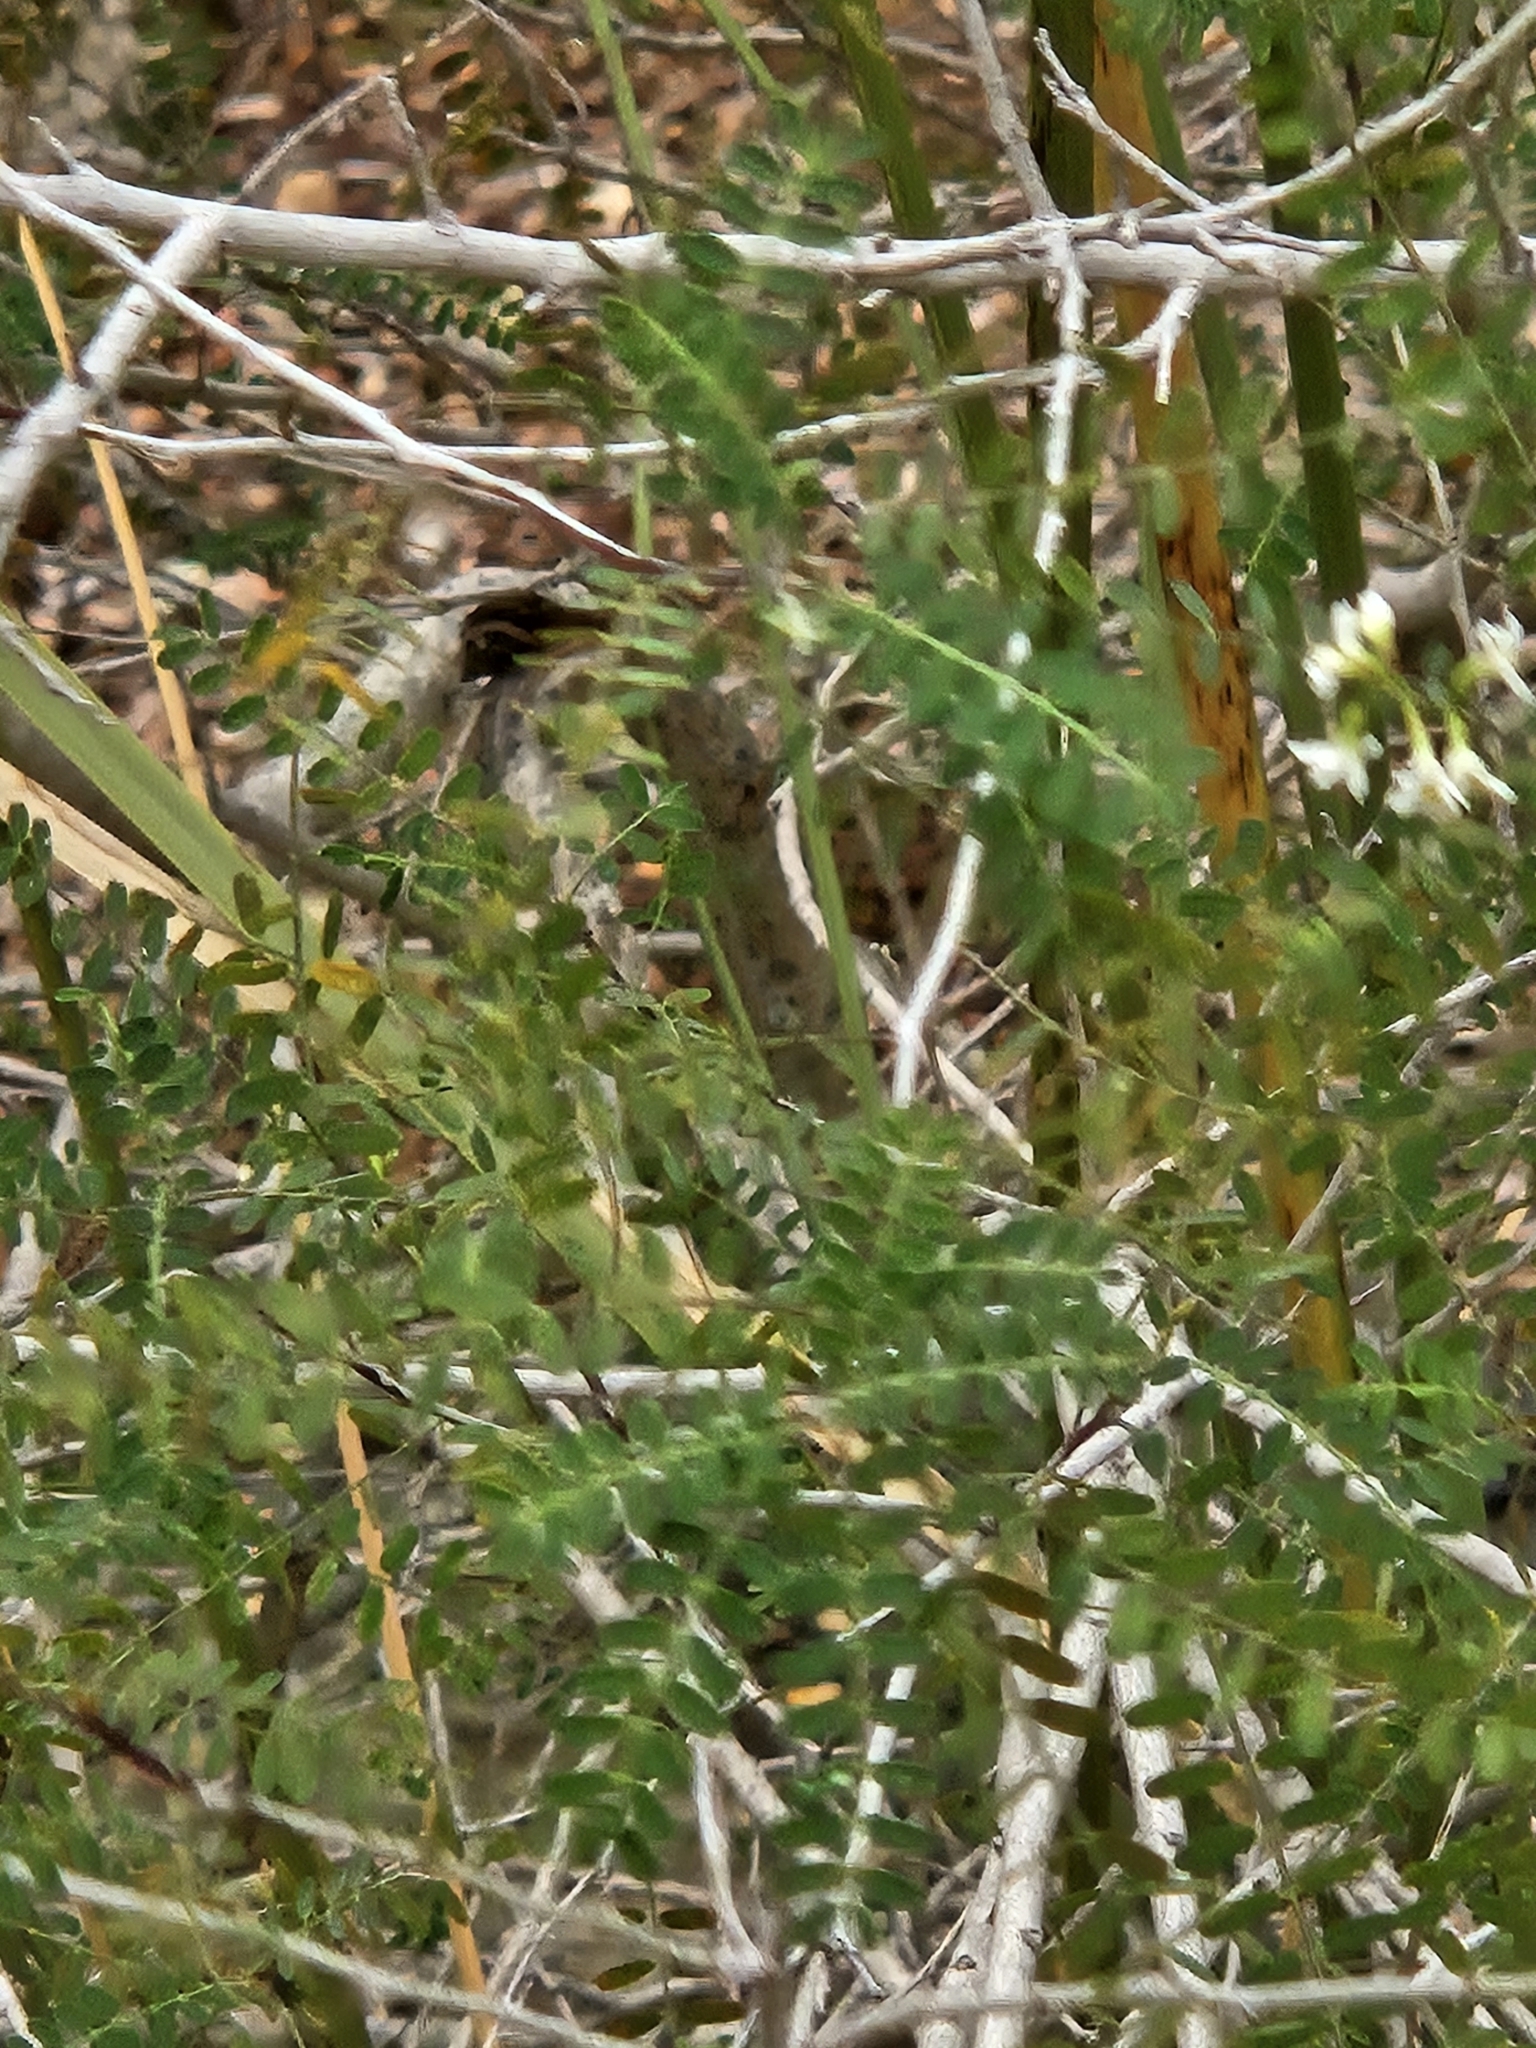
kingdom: Plantae
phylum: Tracheophyta
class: Magnoliopsida
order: Fabales
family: Fabaceae
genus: Eysenhardtia
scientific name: Eysenhardtia texana
